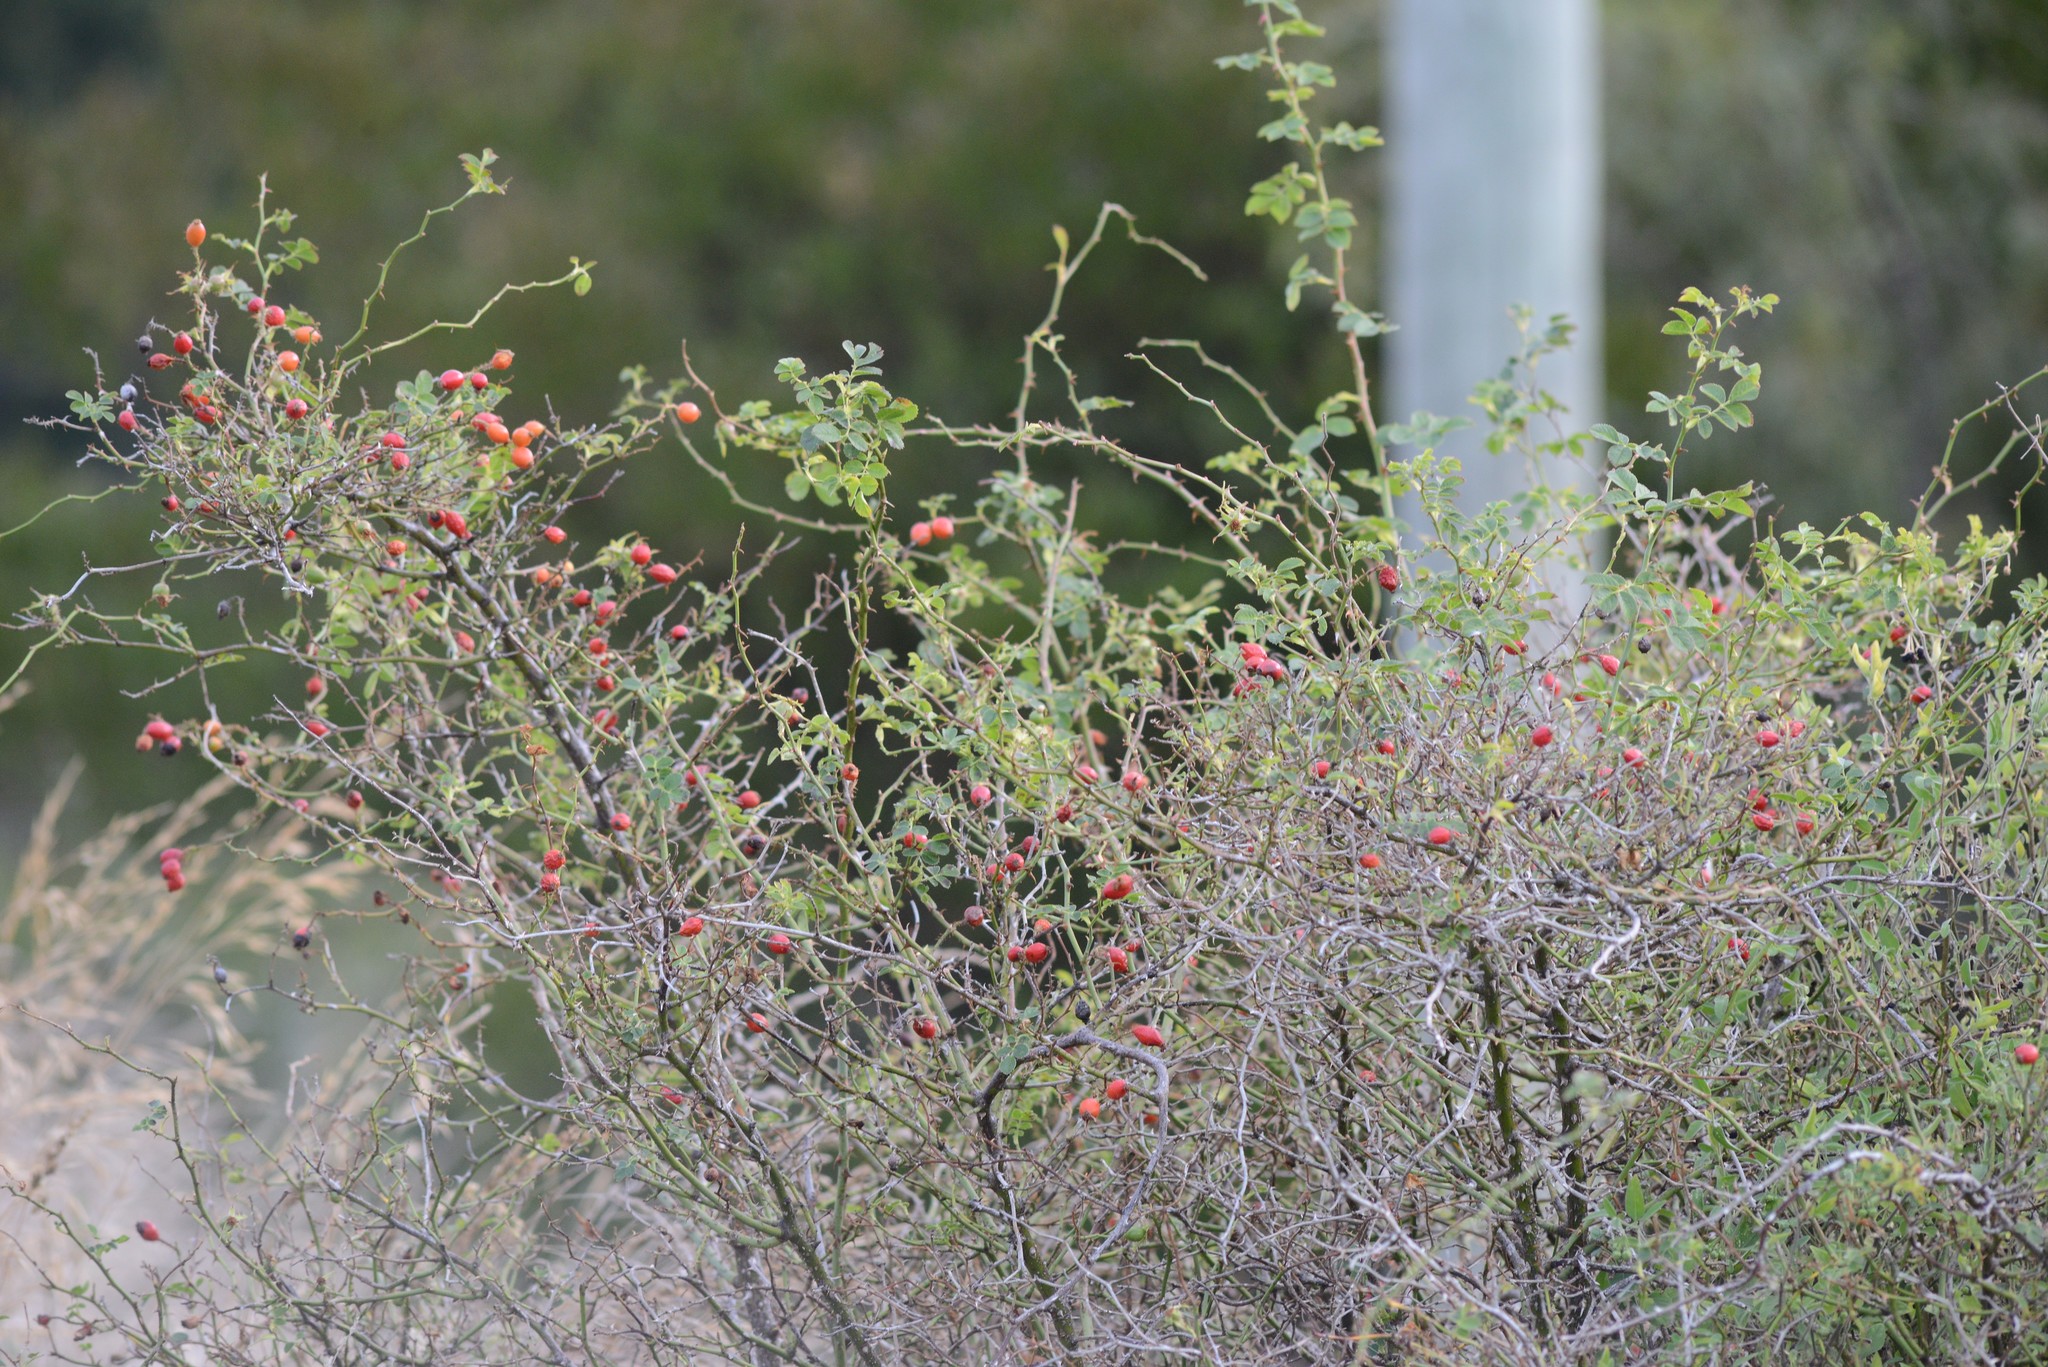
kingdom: Plantae
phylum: Tracheophyta
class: Magnoliopsida
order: Rosales
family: Rosaceae
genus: Rosa
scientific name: Rosa rubiginosa
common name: Sweet-briar
